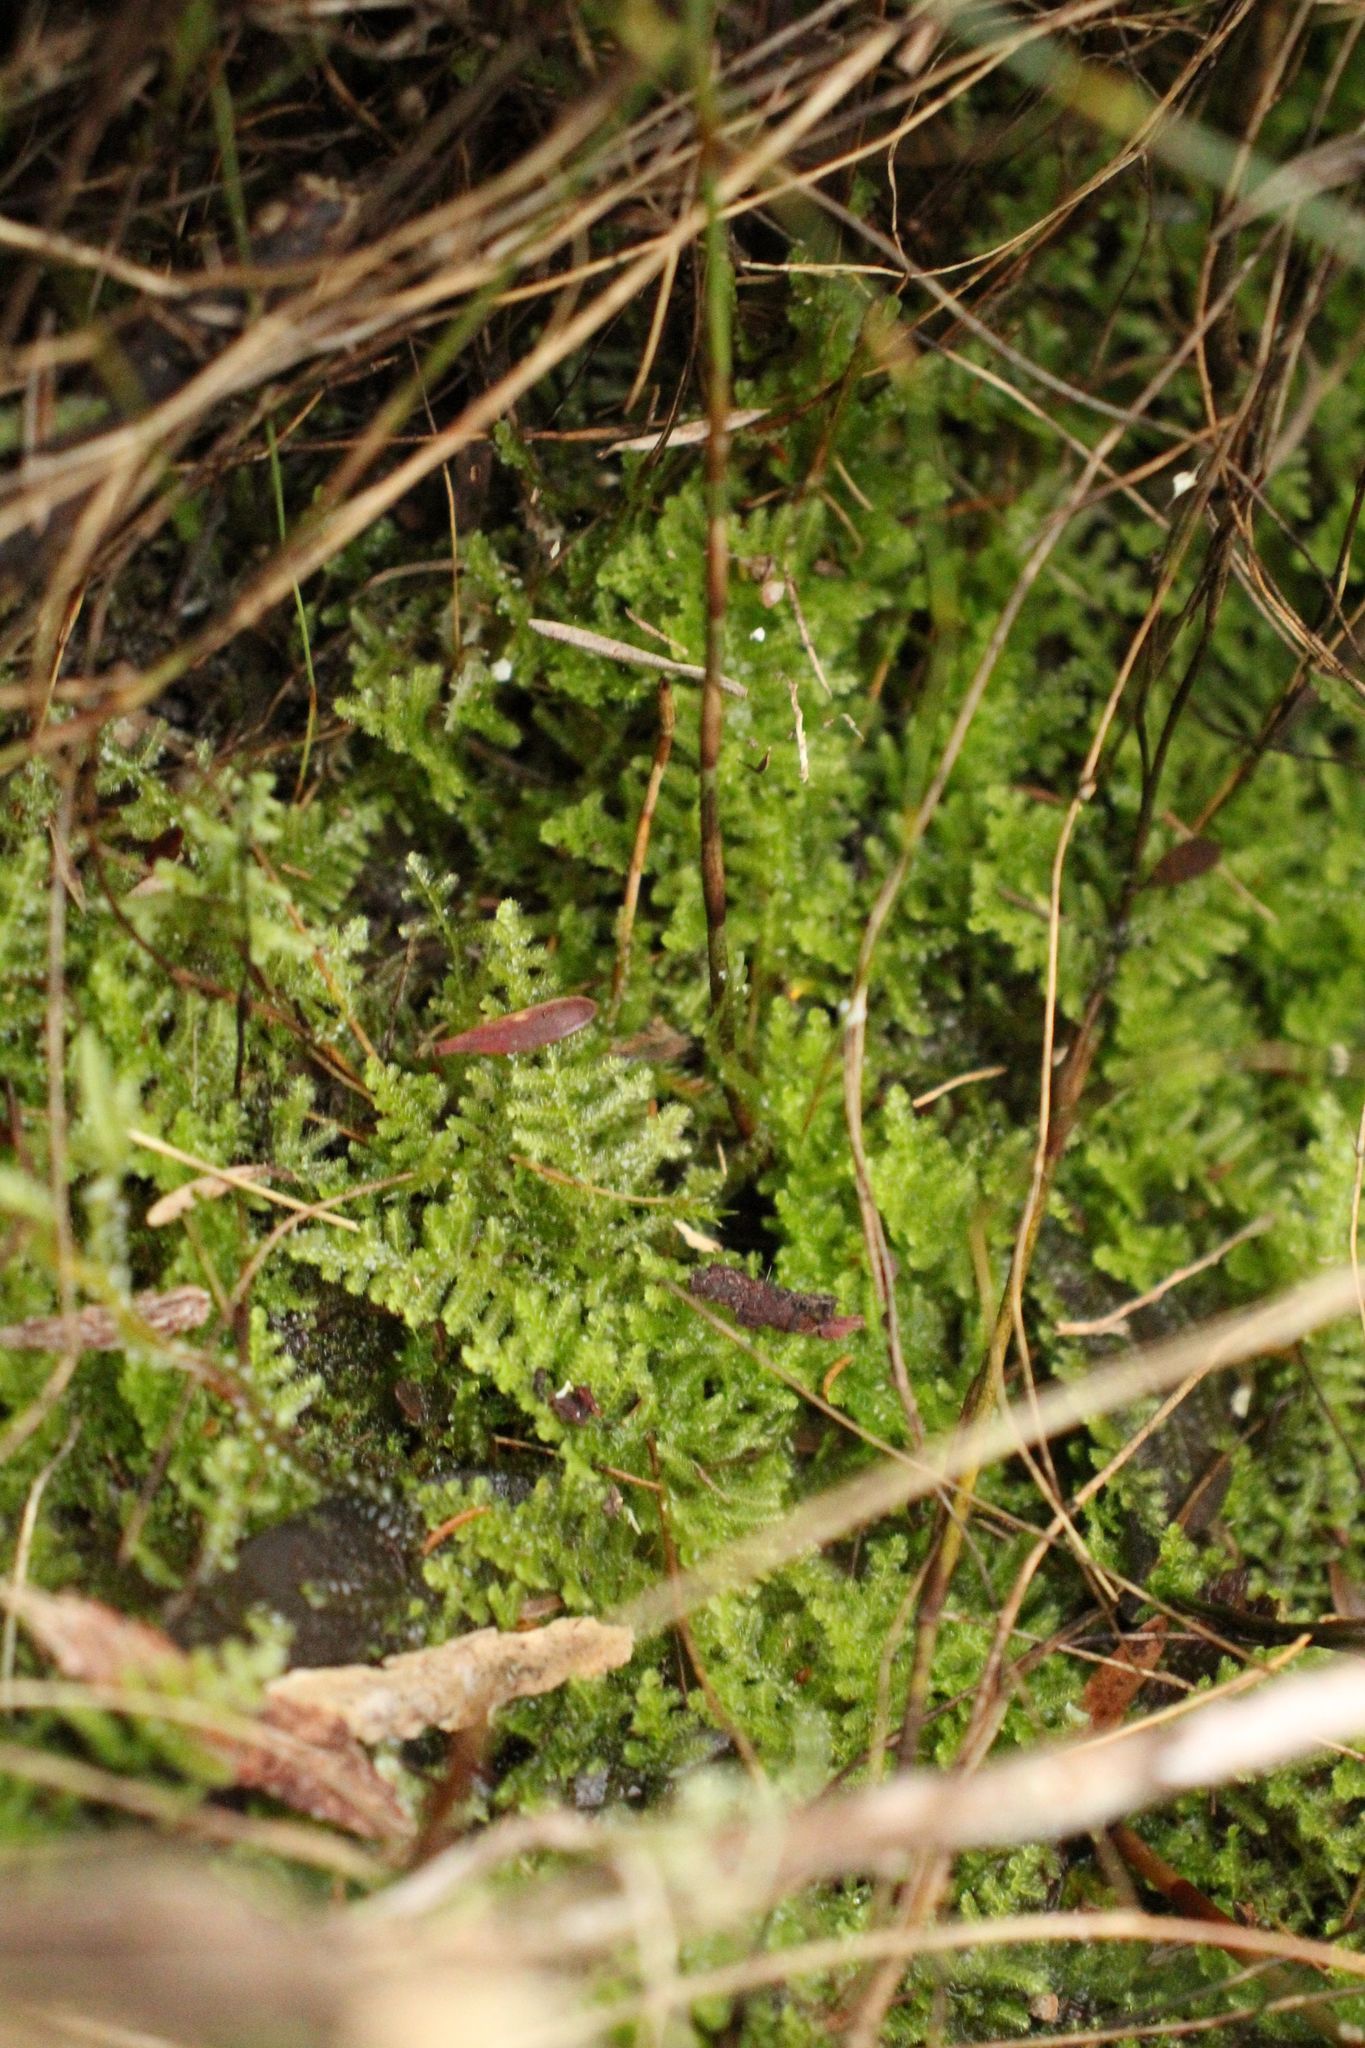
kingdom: Plantae
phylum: Marchantiophyta
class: Jungermanniopsida
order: Jungermanniales
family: Lepidoziaceae
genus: Ceramanus
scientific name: Ceramanus clatritexta
